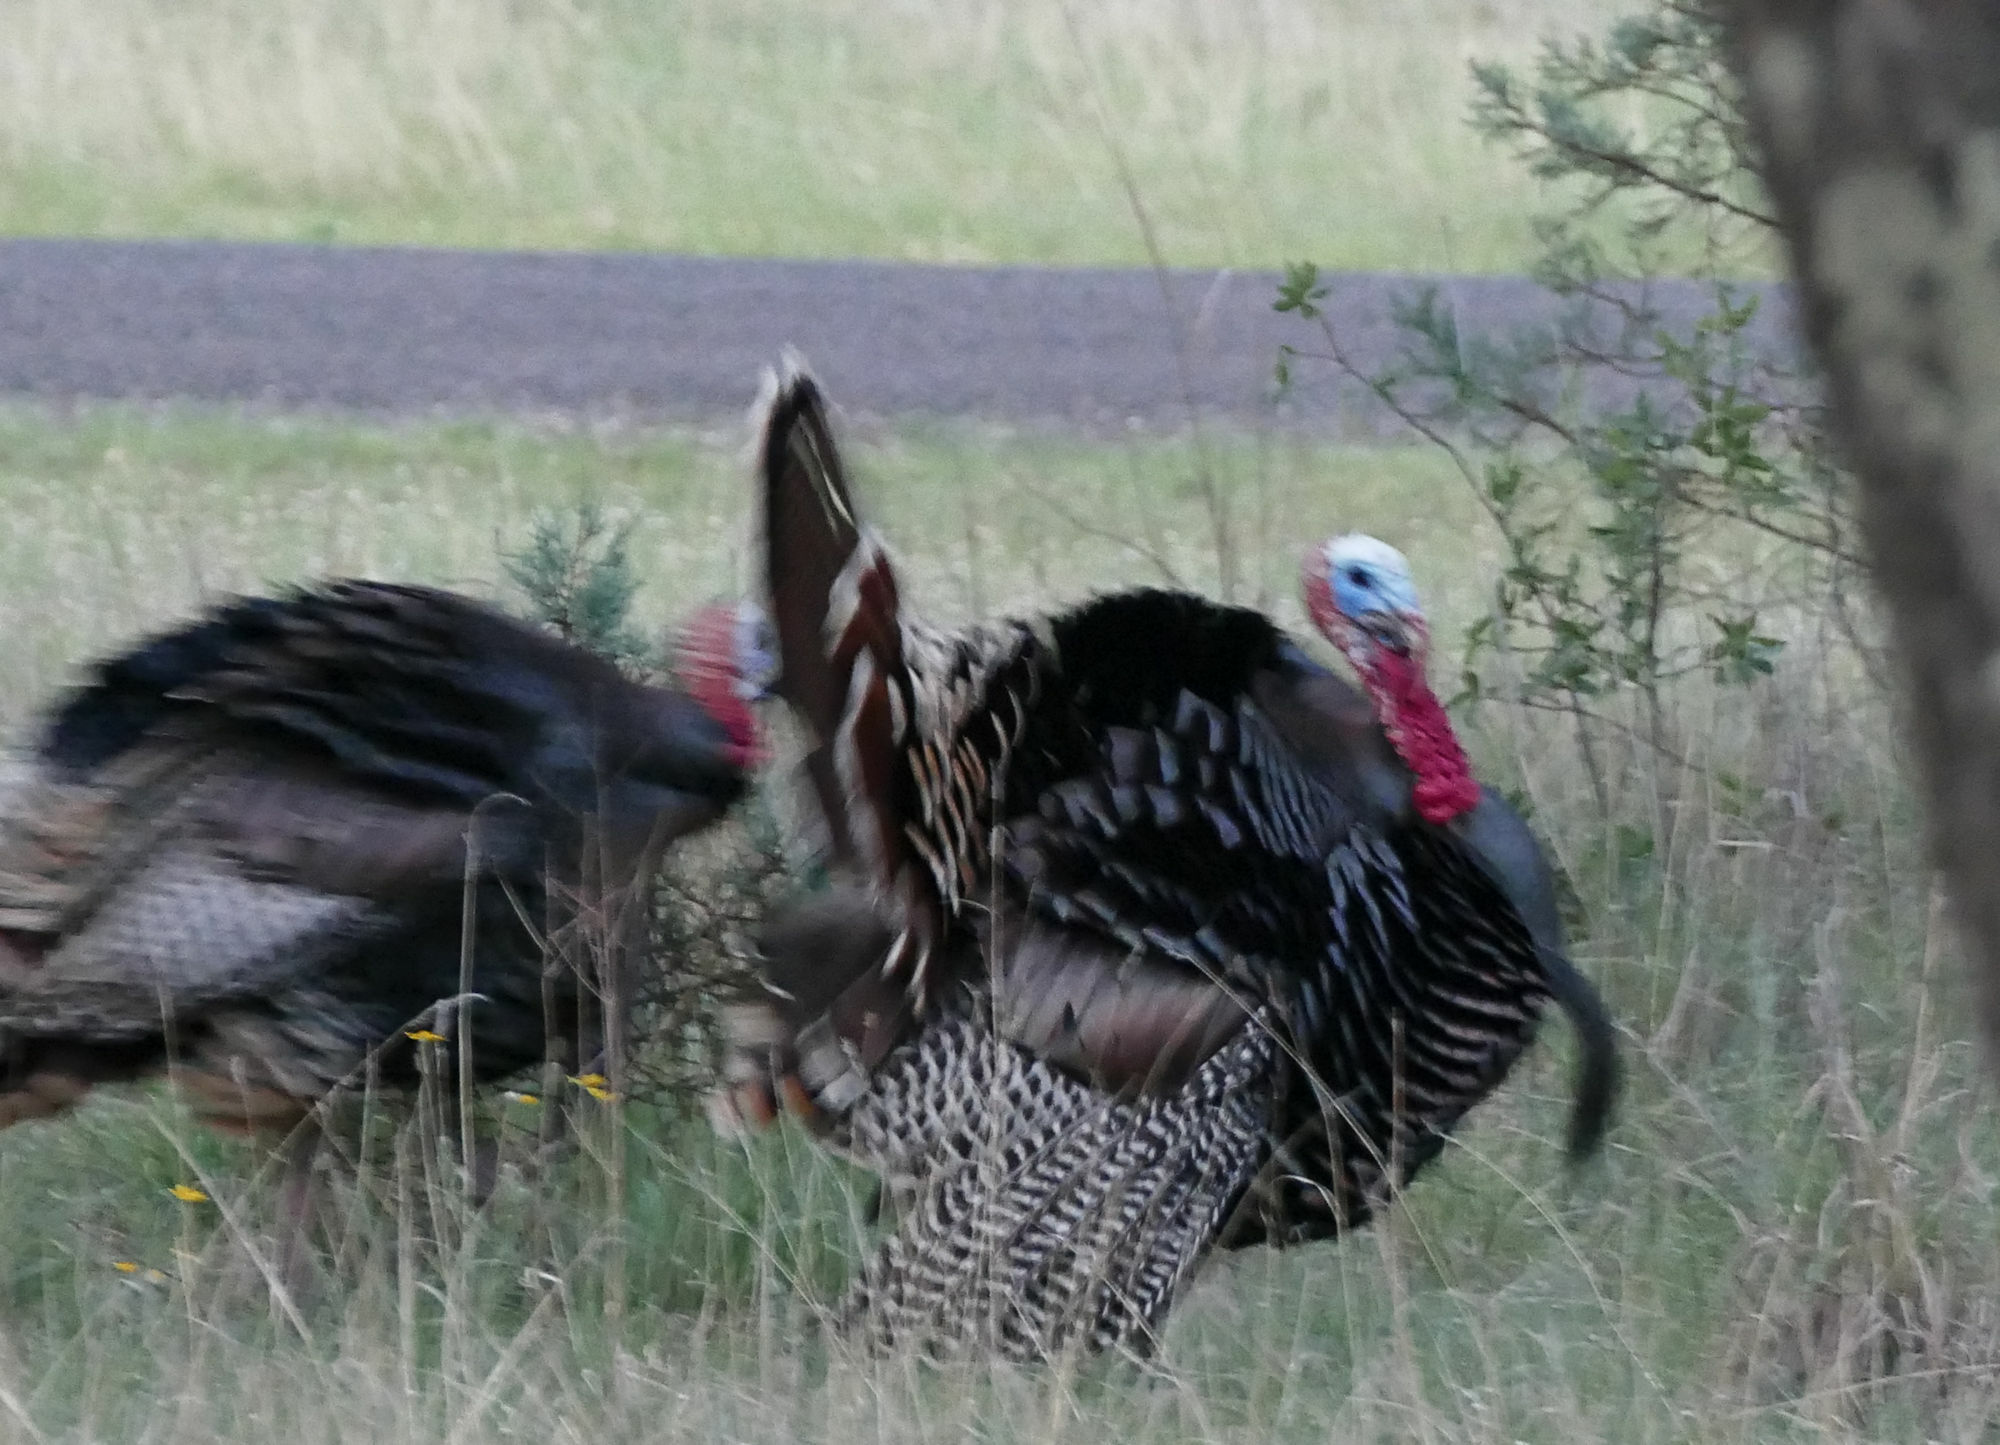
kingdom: Animalia
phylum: Chordata
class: Aves
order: Galliformes
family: Phasianidae
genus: Meleagris
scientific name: Meleagris gallopavo
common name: Wild turkey
